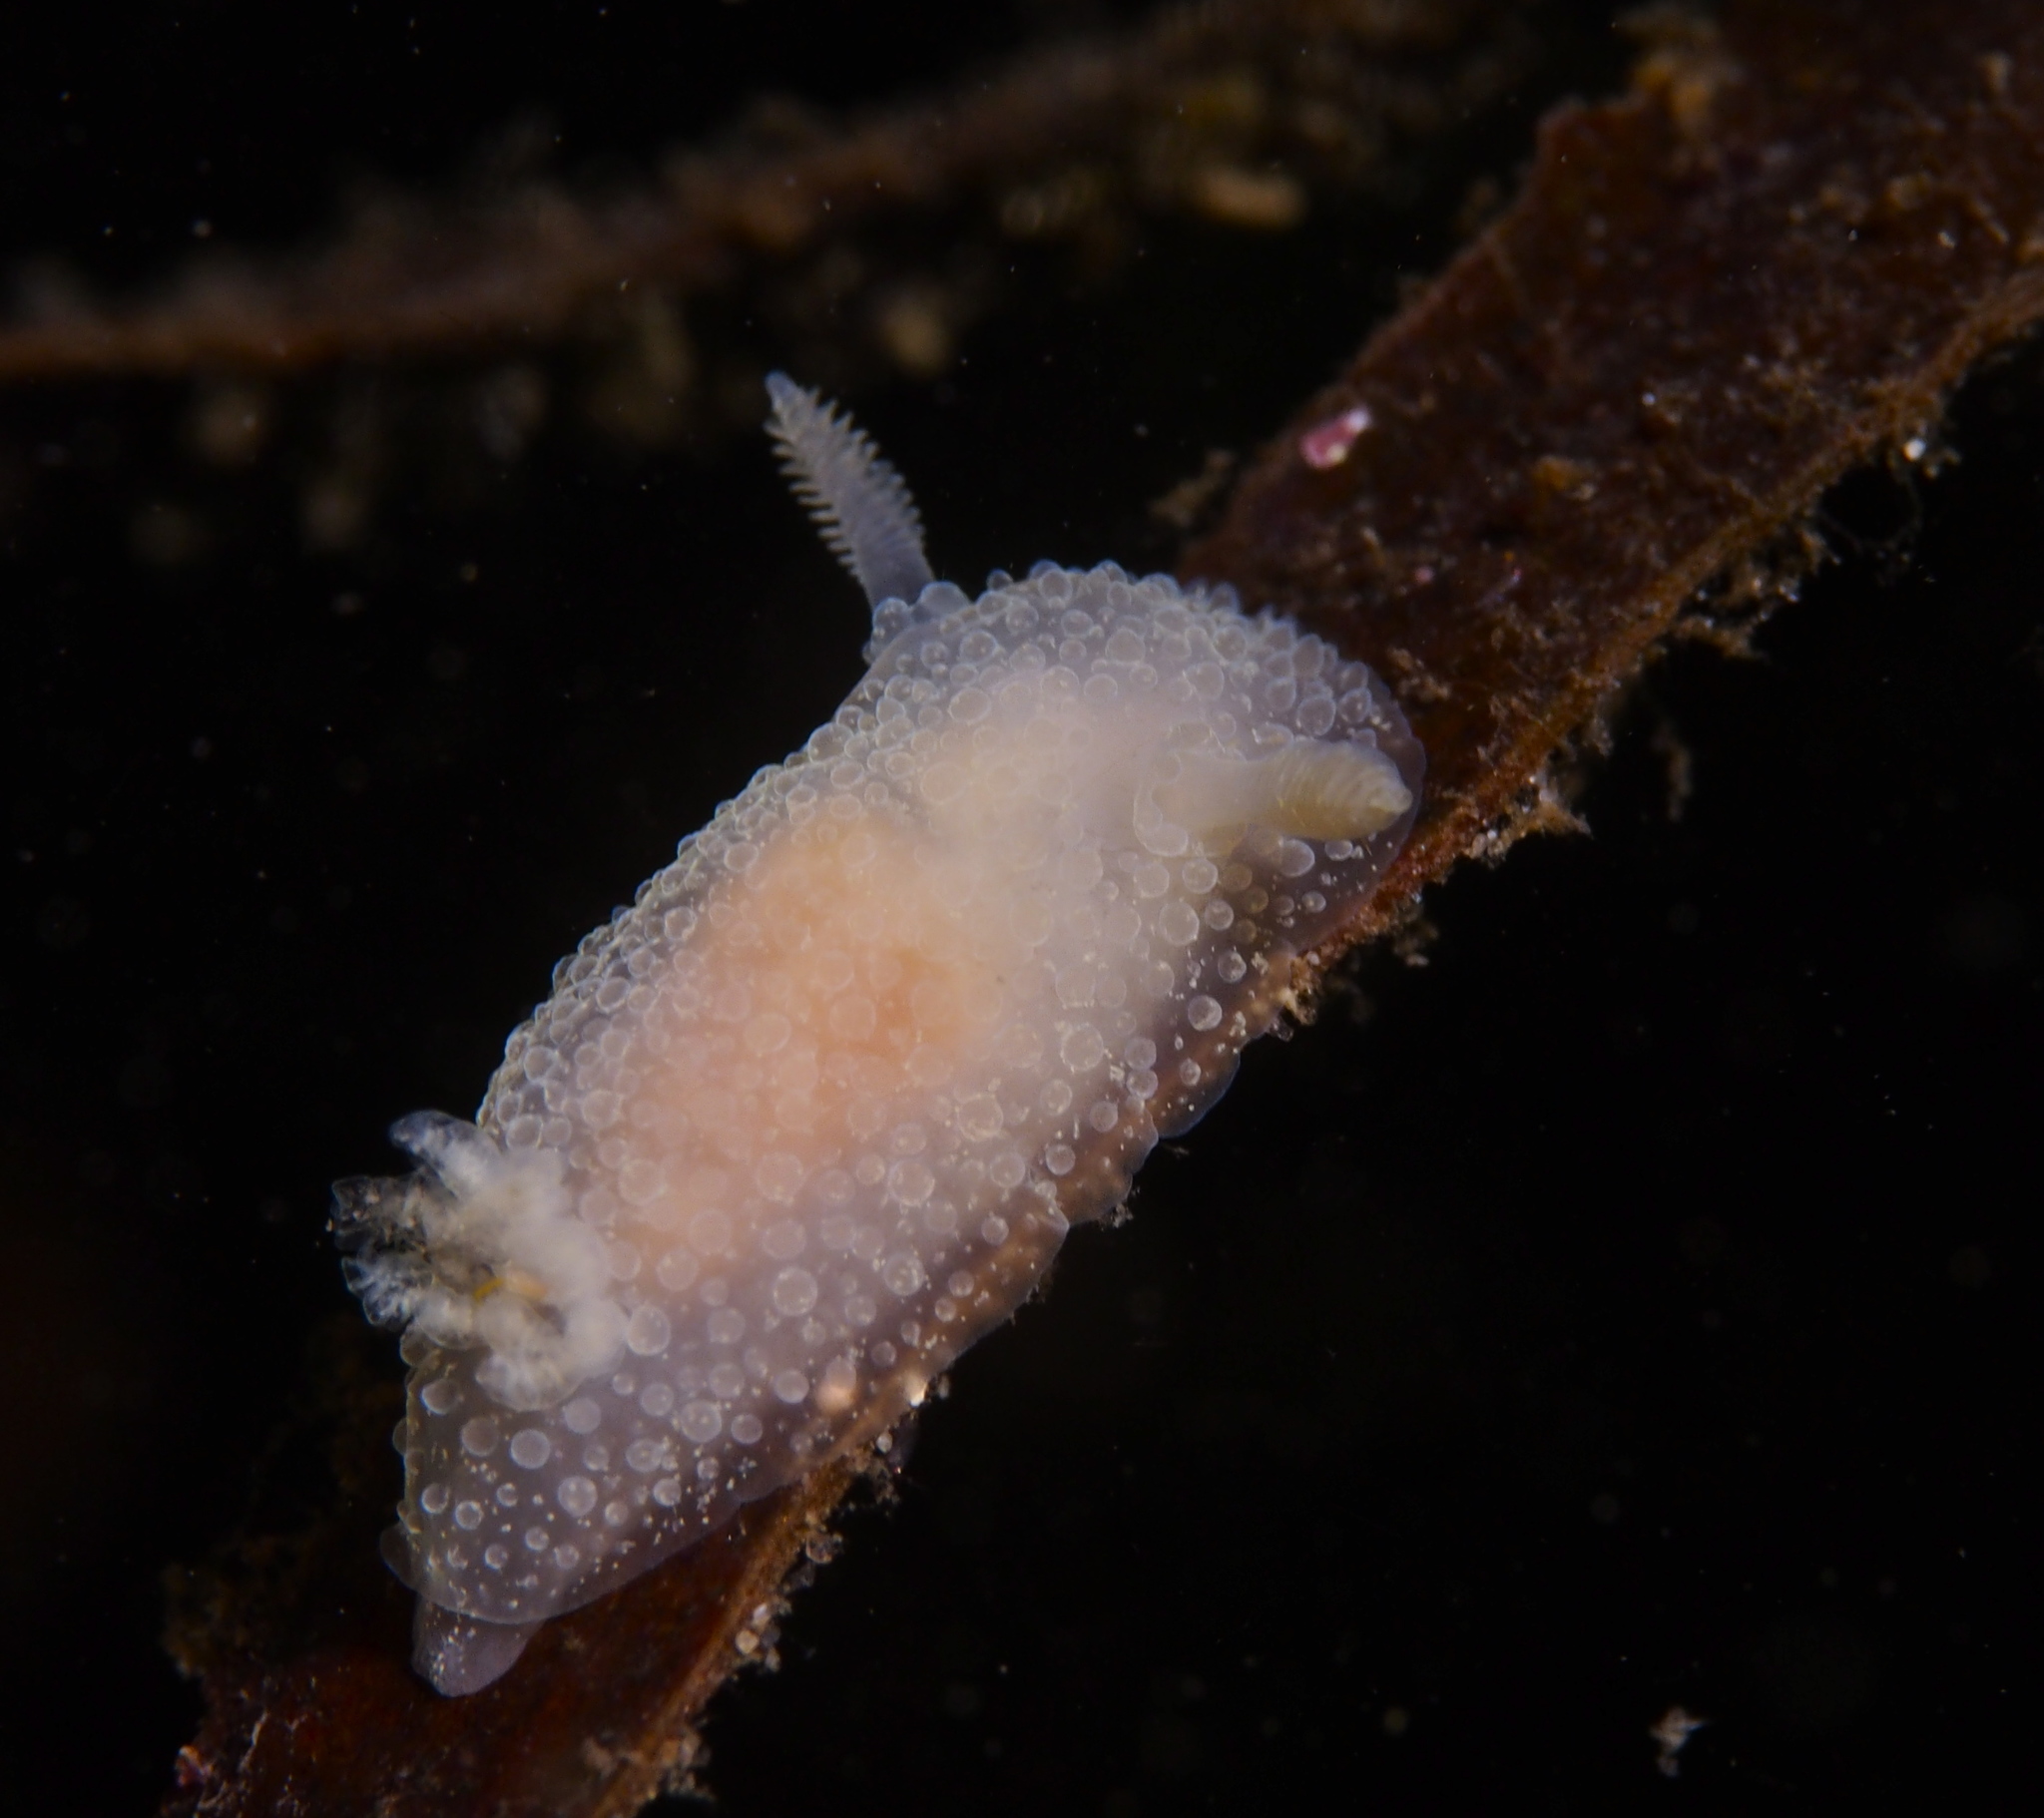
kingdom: Animalia
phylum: Mollusca
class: Gastropoda
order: Nudibranchia
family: Onchidorididae
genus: Acanthodoris
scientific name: Acanthodoris pilosa
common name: Hairy spiny doris
